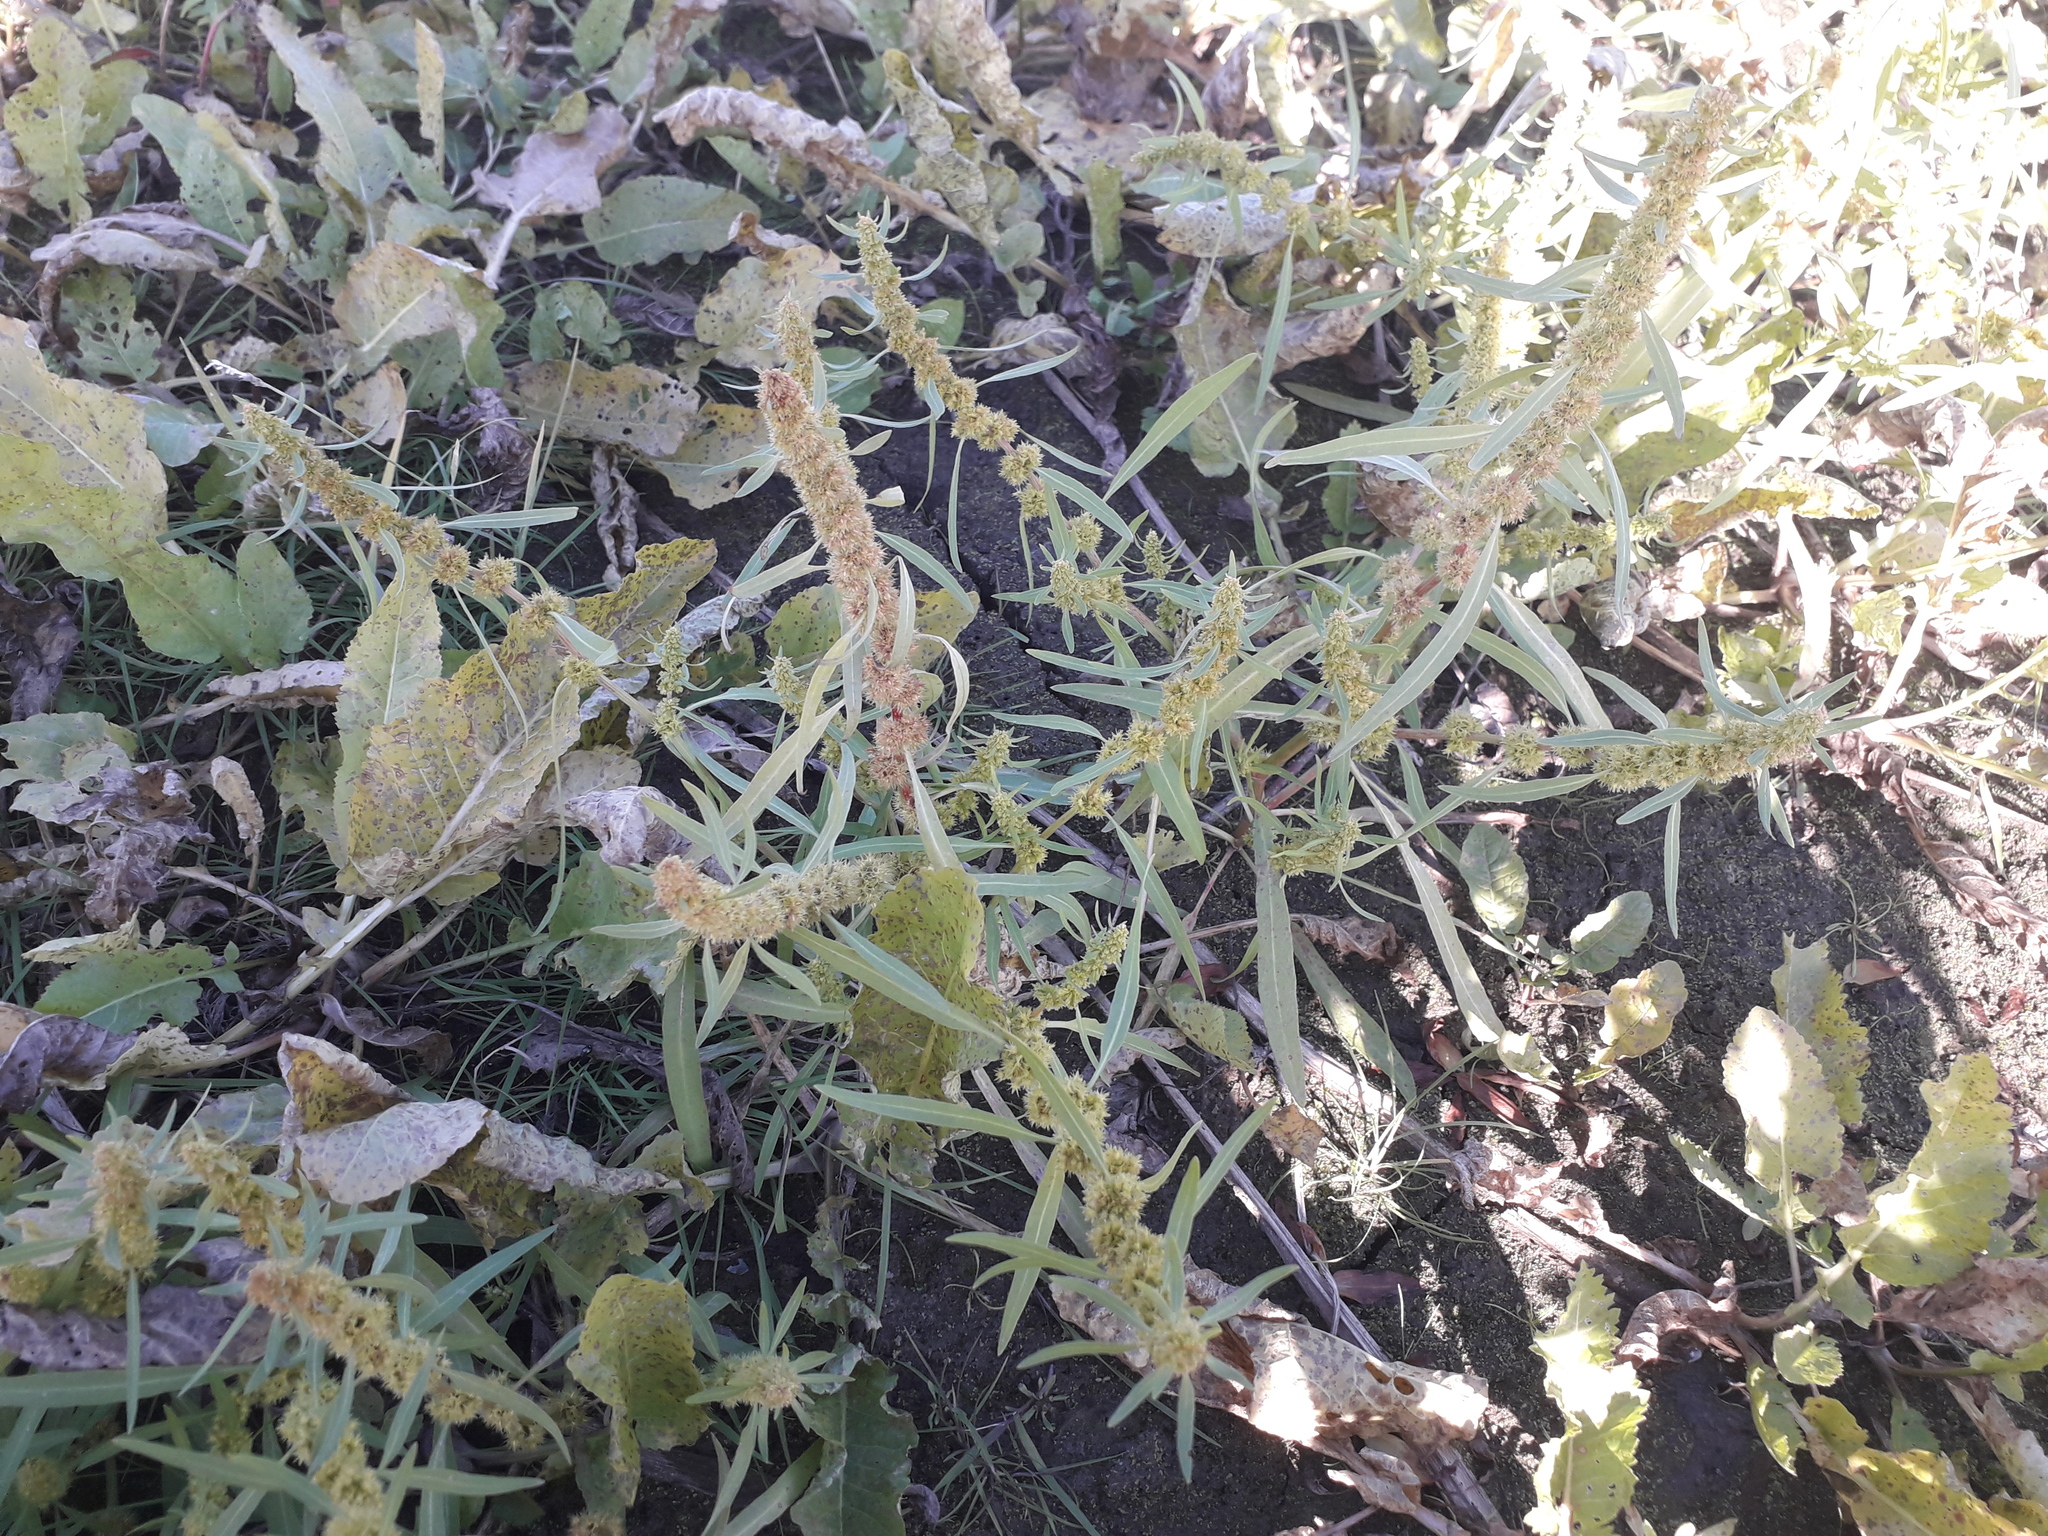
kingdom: Plantae
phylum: Tracheophyta
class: Magnoliopsida
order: Caryophyllales
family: Polygonaceae
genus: Rumex
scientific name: Rumex maritimus
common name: Golden dock
